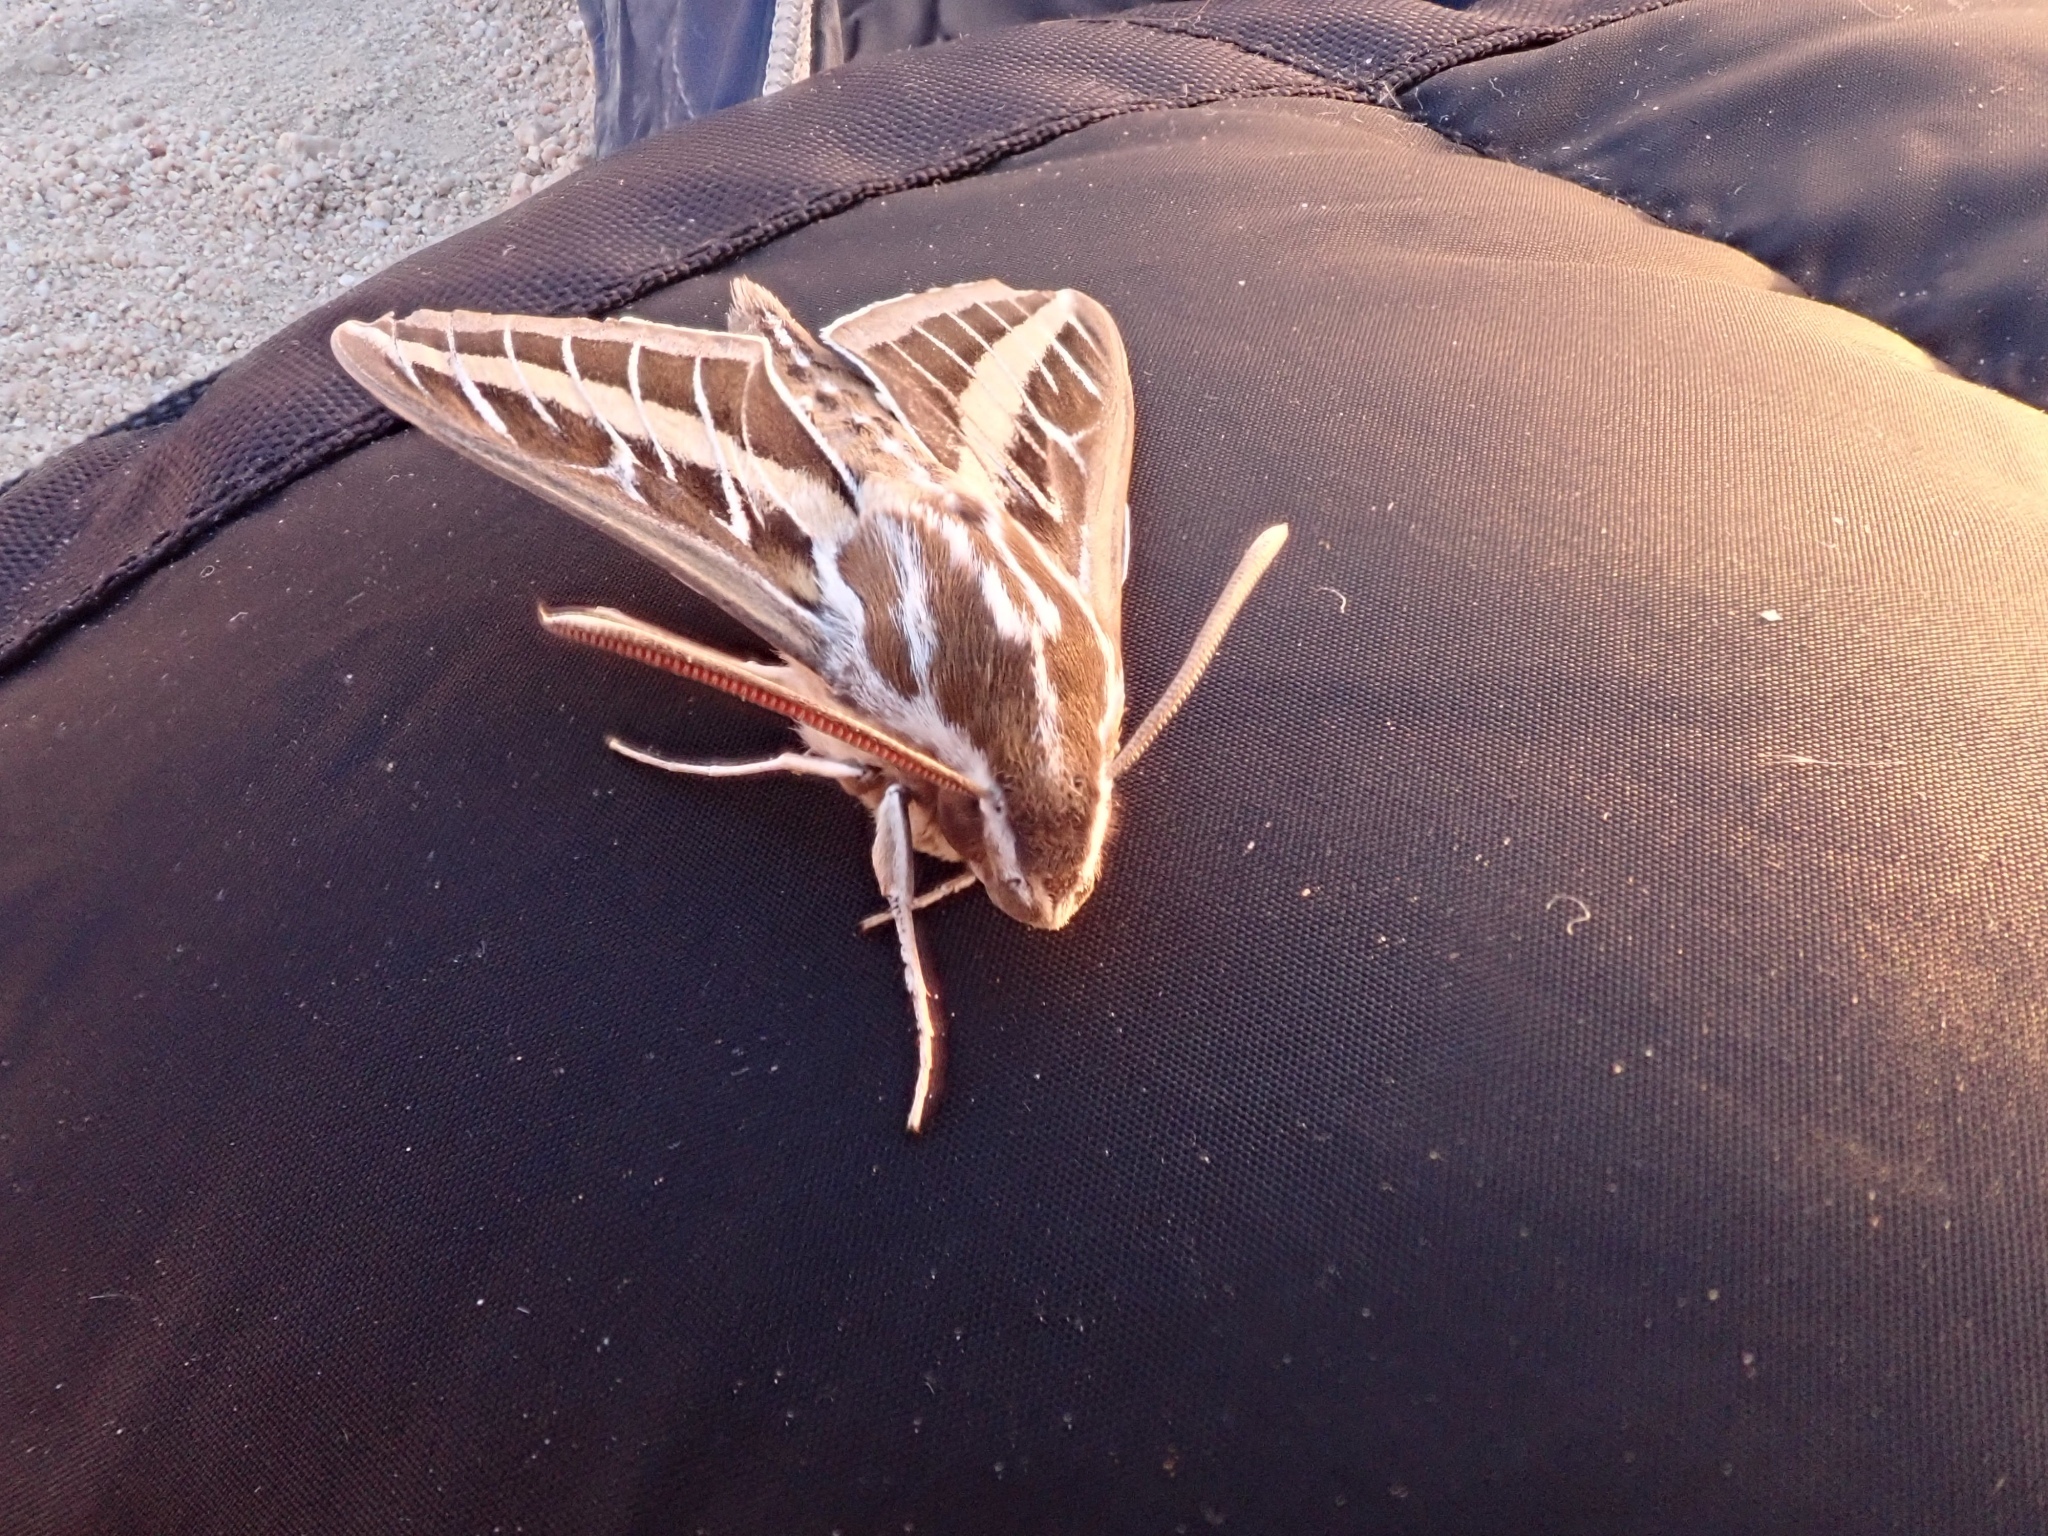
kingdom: Animalia
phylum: Arthropoda
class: Insecta
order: Lepidoptera
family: Sphingidae
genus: Hyles
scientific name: Hyles lineata
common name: White-lined sphinx
